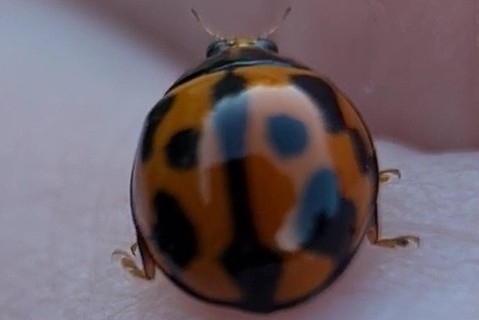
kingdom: Animalia
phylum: Arthropoda
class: Insecta
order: Coleoptera
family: Coccinellidae
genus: Coelophora
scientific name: Coelophora inaequalis
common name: Common australian lady beetle
